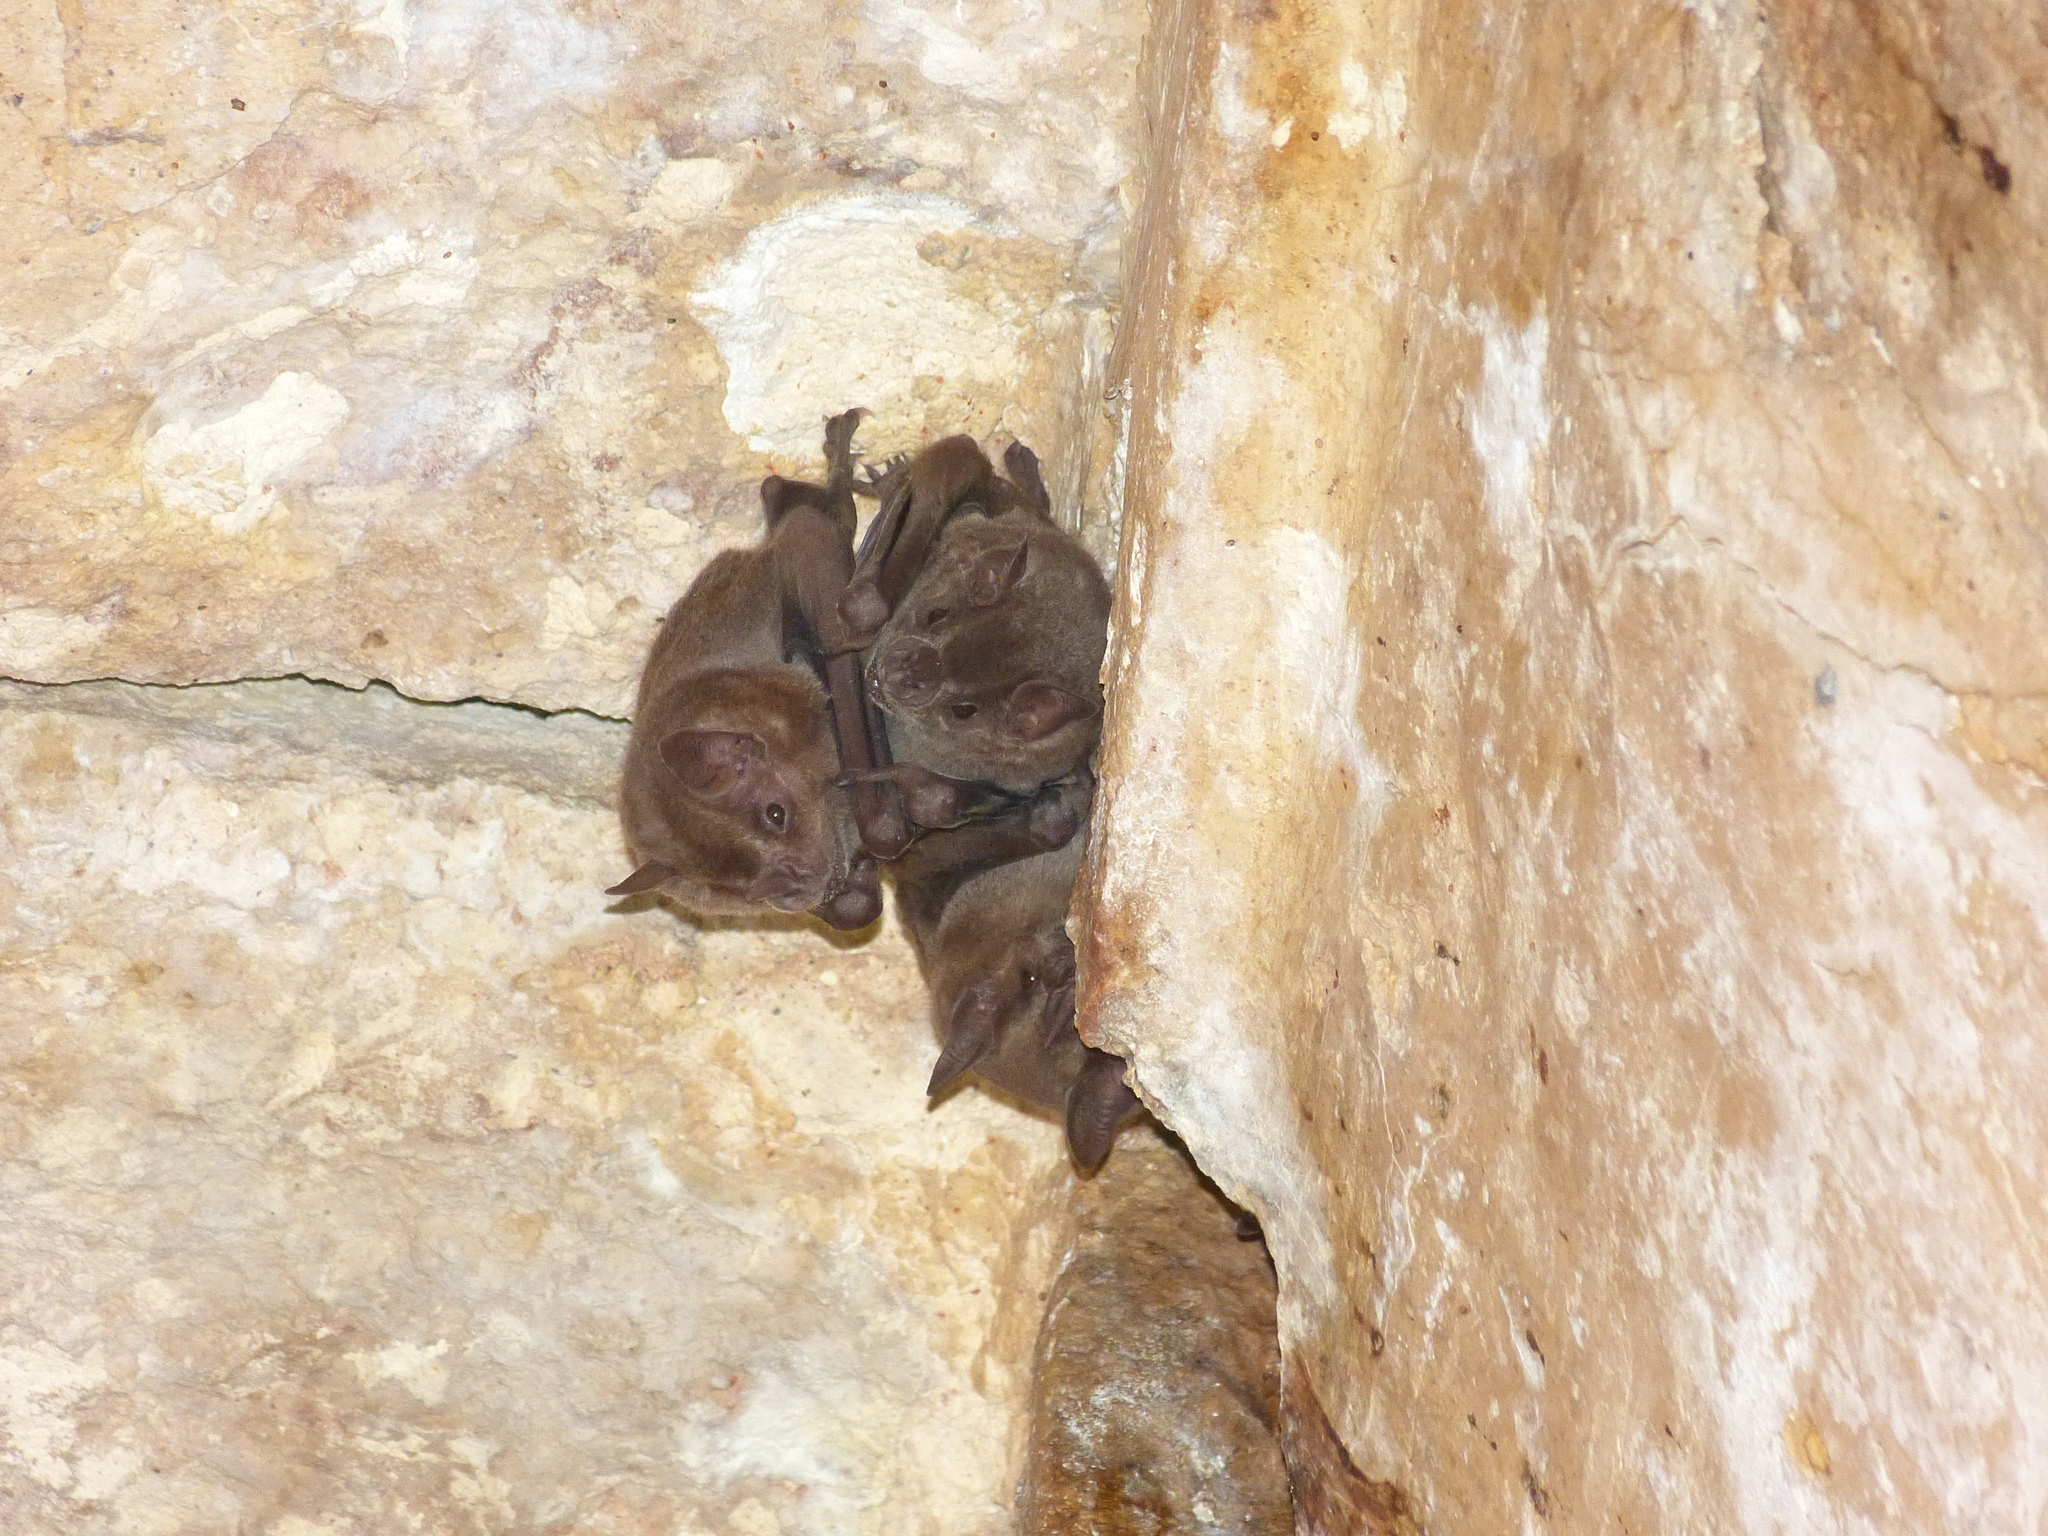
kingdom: Animalia
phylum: Chordata
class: Mammalia
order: Chiroptera
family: Phyllostomidae
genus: Artibeus
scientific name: Artibeus jamaicensis
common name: Jamaican fruit-eating bat
